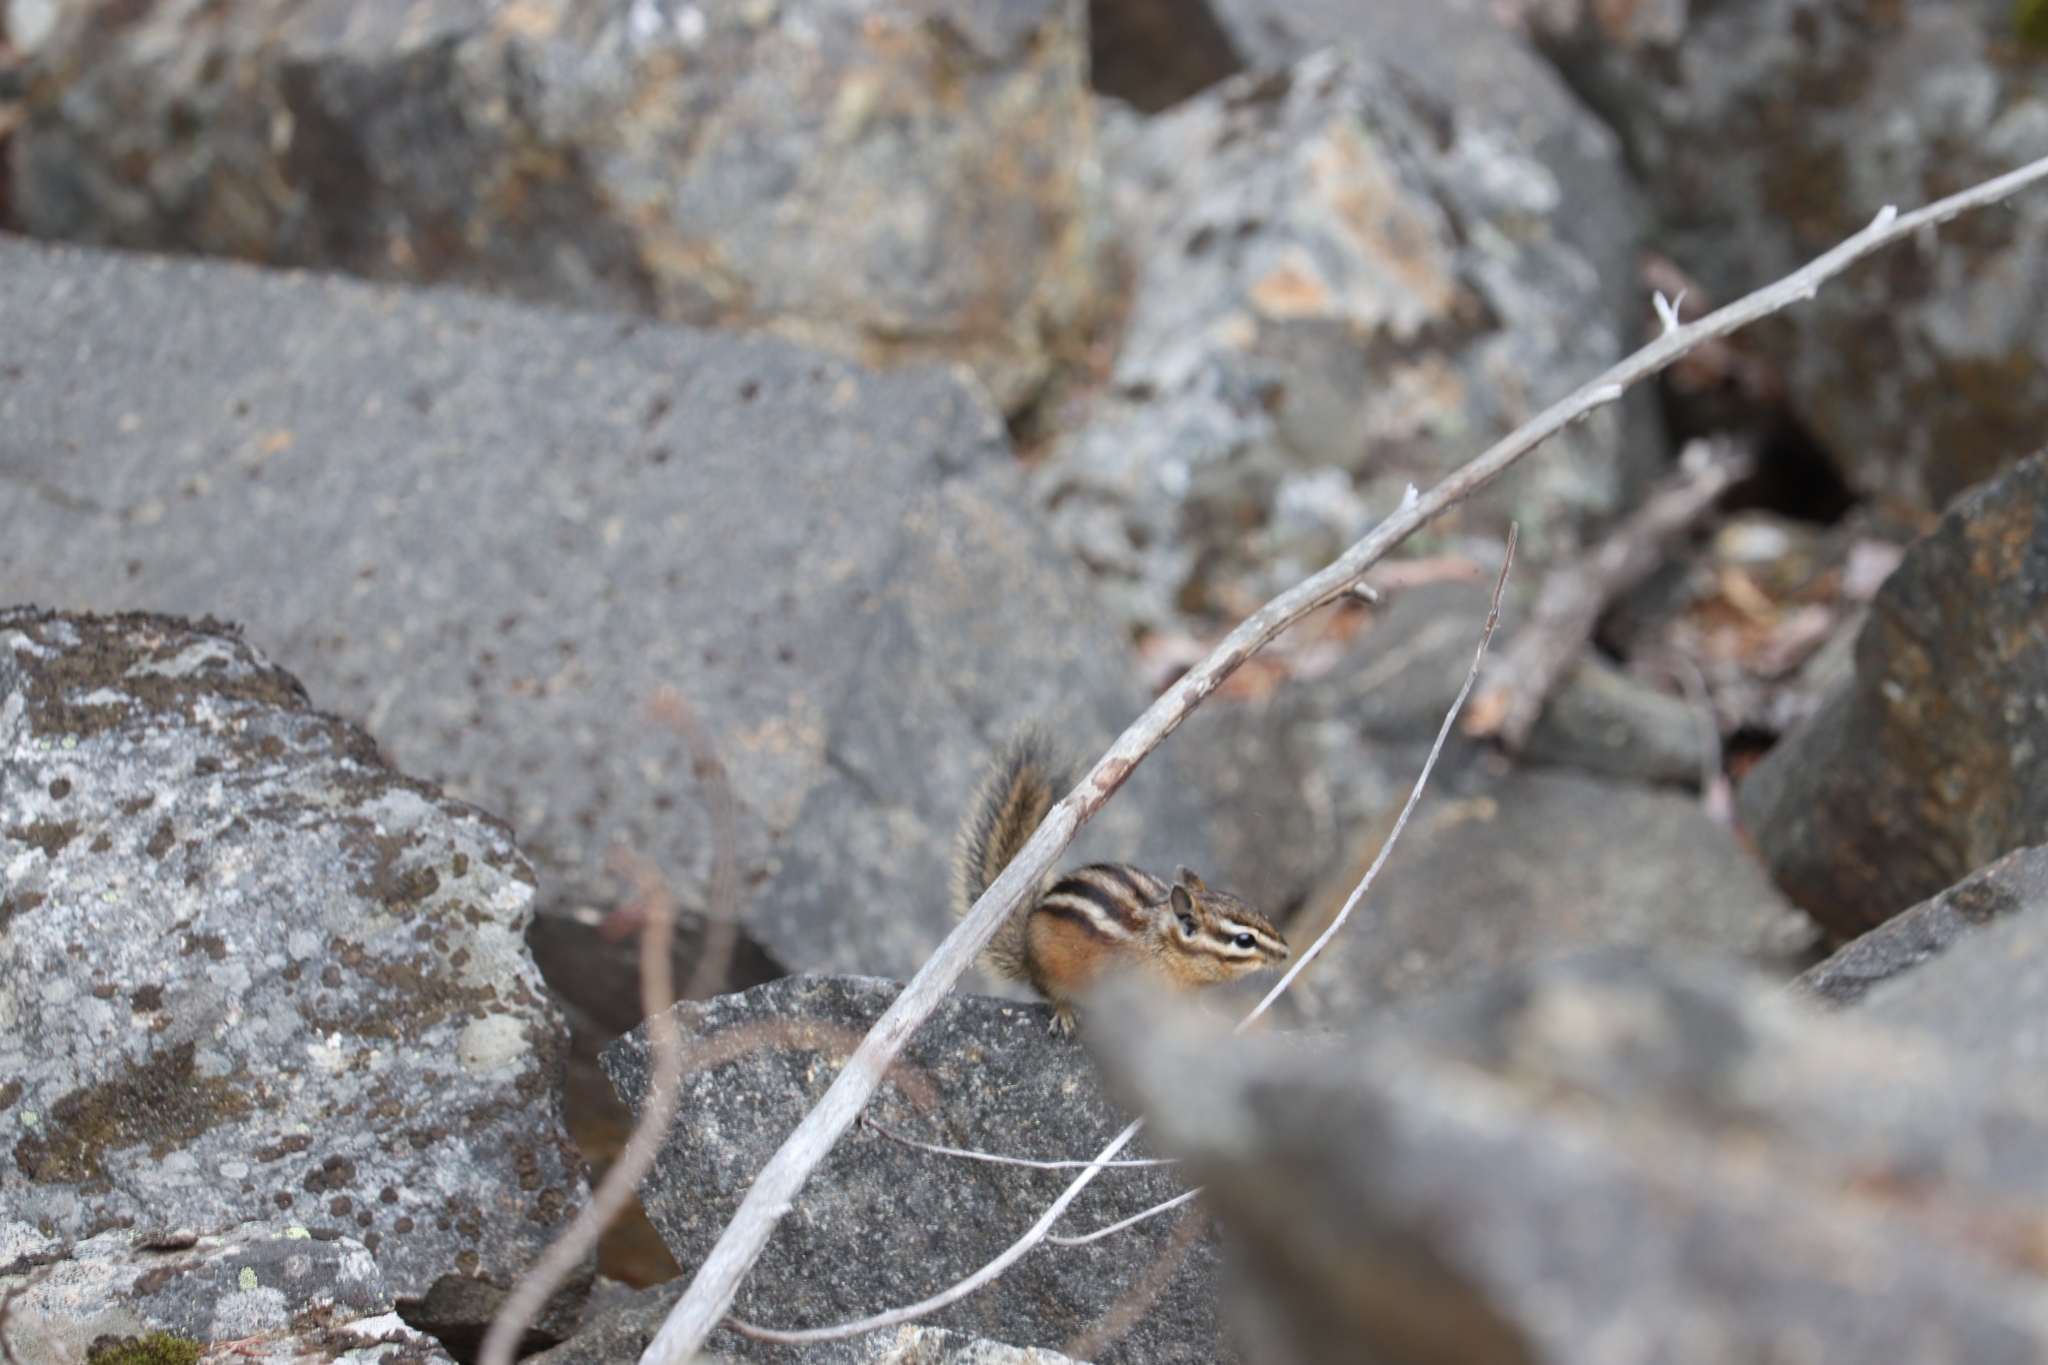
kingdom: Animalia
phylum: Chordata
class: Mammalia
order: Rodentia
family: Sciuridae
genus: Tamias
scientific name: Tamias amoenus
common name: Yellow-pine chipmunk
